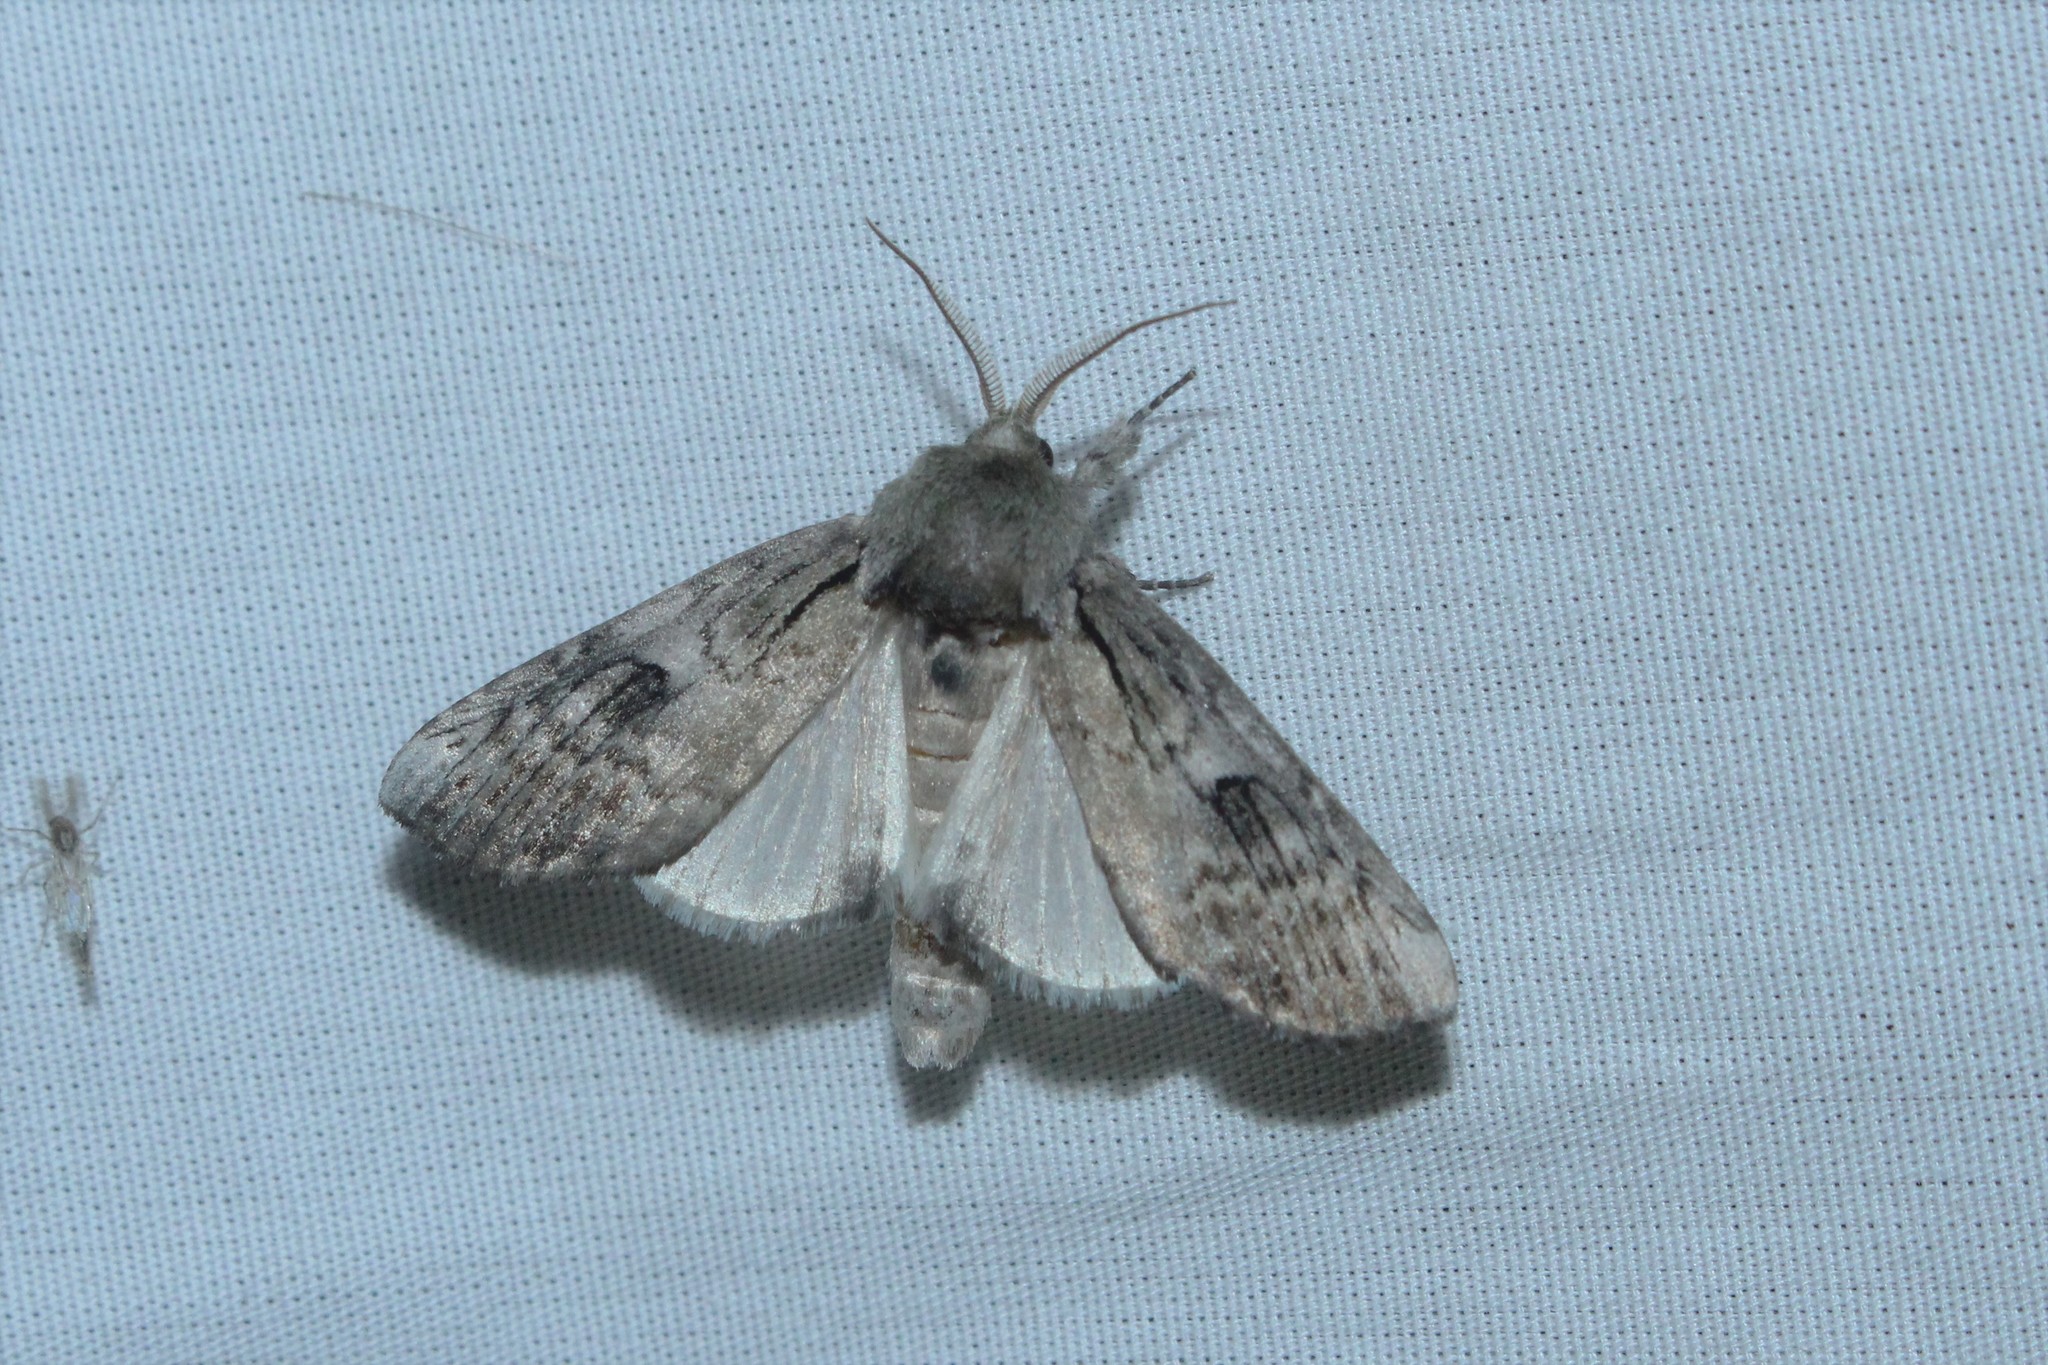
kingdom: Animalia
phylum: Arthropoda
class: Insecta
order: Lepidoptera
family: Notodontidae
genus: Schizura
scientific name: Schizura
